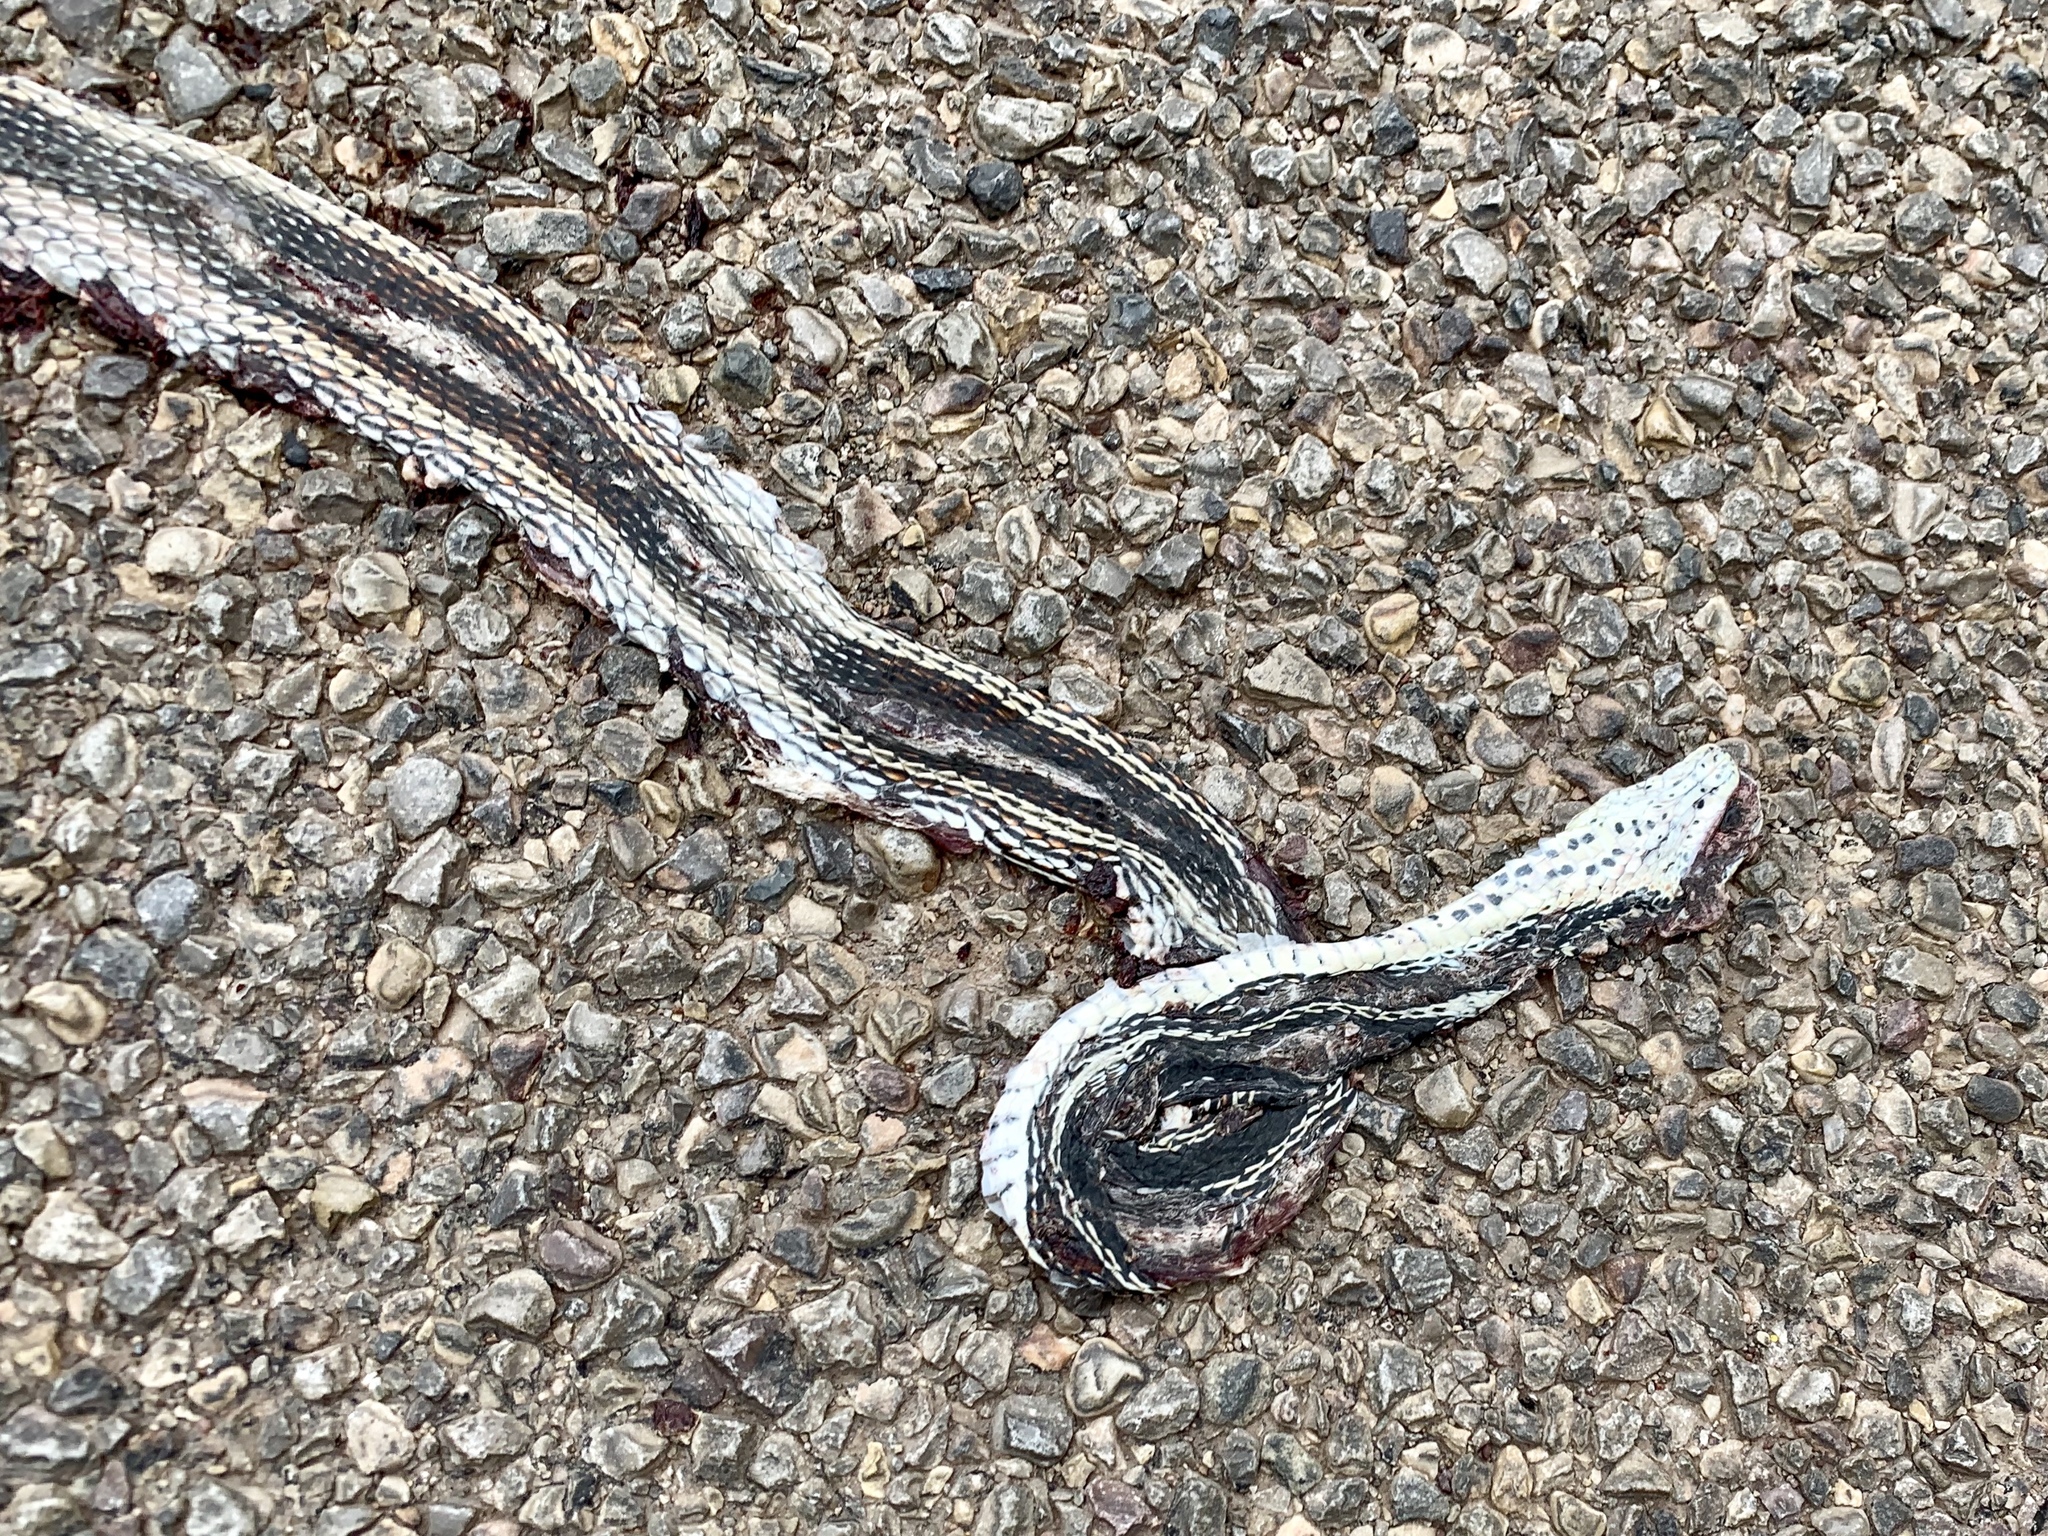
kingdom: Animalia
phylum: Chordata
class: Squamata
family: Colubridae
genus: Masticophis
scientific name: Masticophis taeniatus
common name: Striped whipsnake
